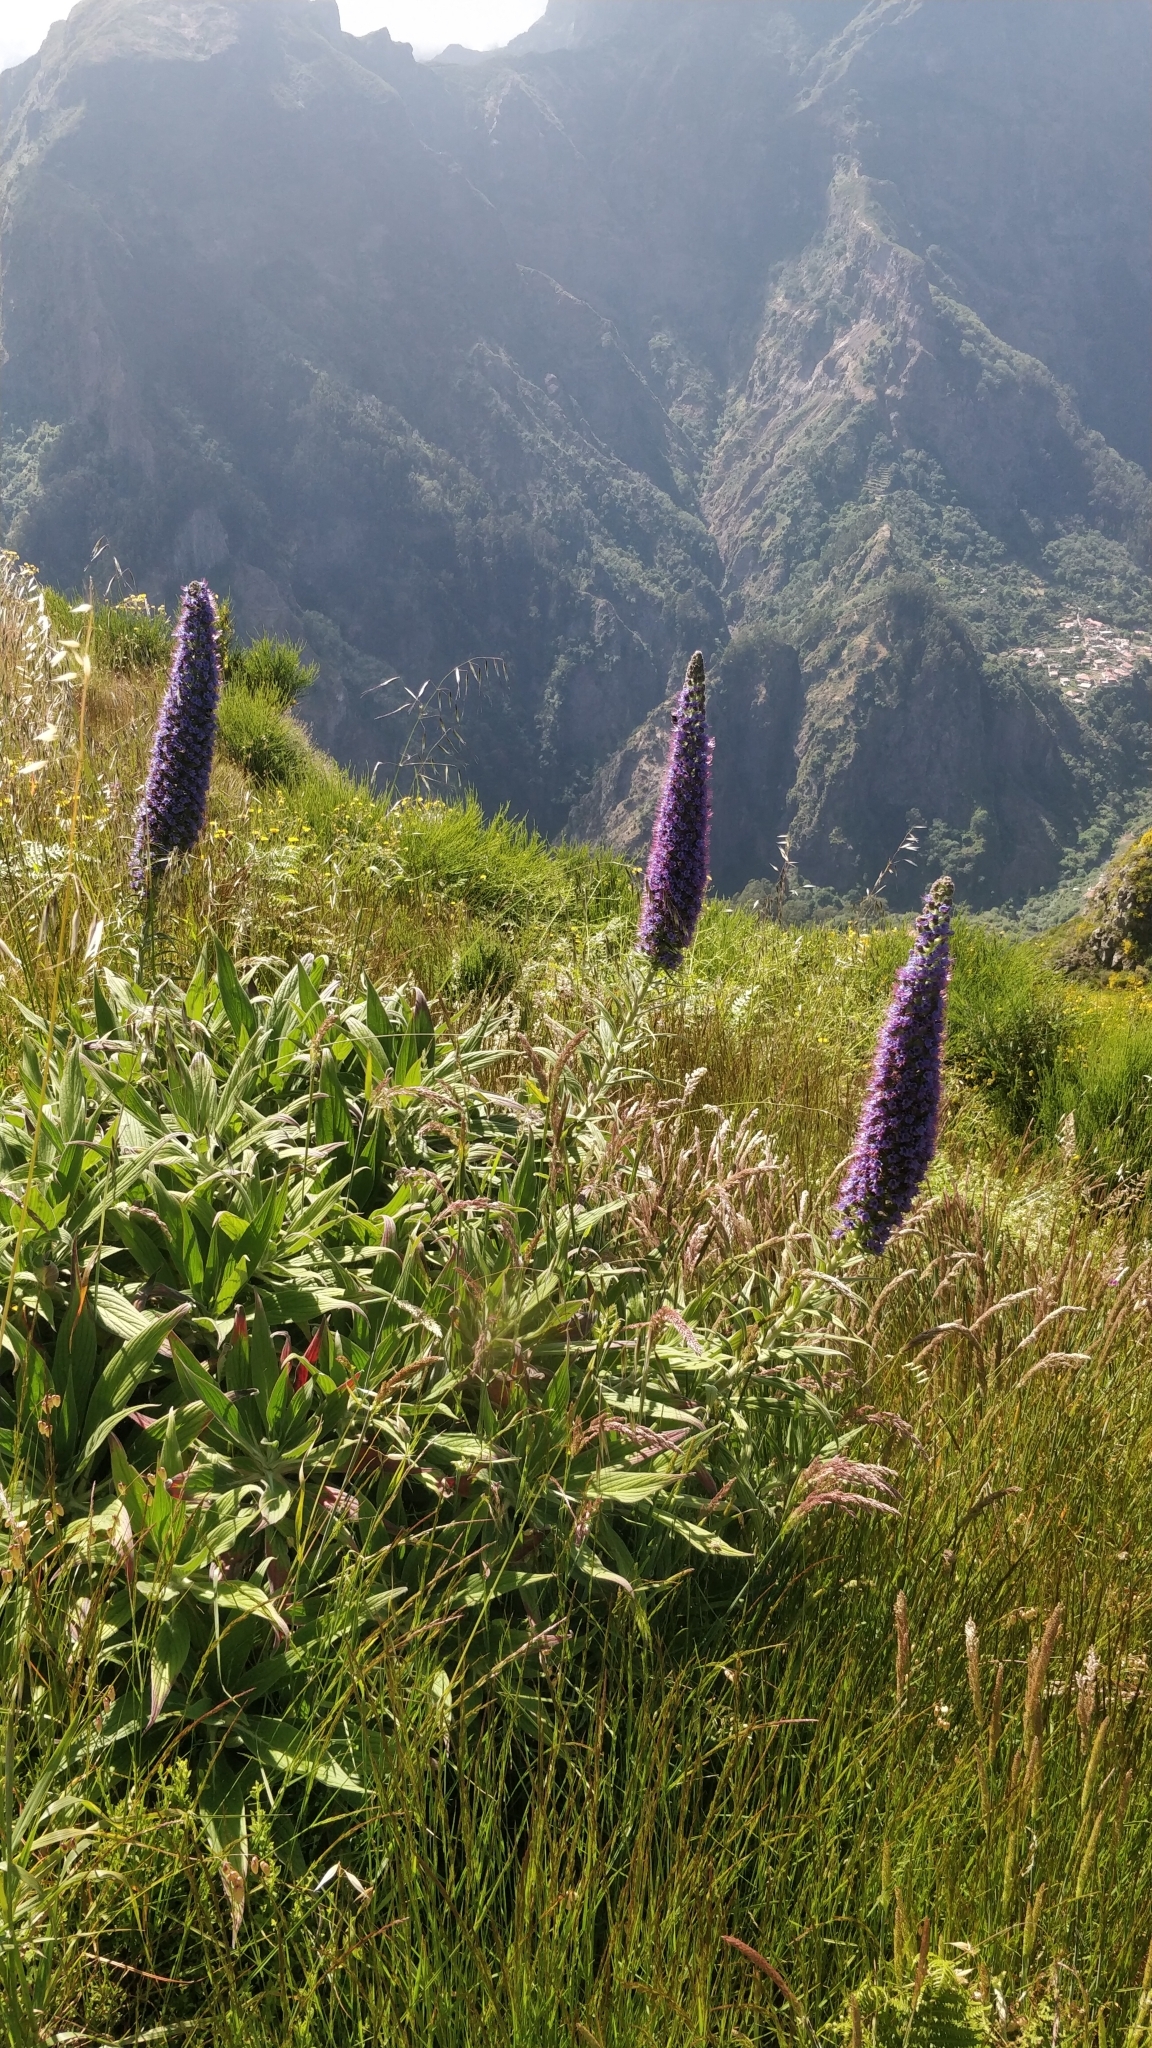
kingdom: Plantae
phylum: Tracheophyta
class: Magnoliopsida
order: Boraginales
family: Boraginaceae
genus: Echium
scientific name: Echium candicans
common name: Pride of madeira
